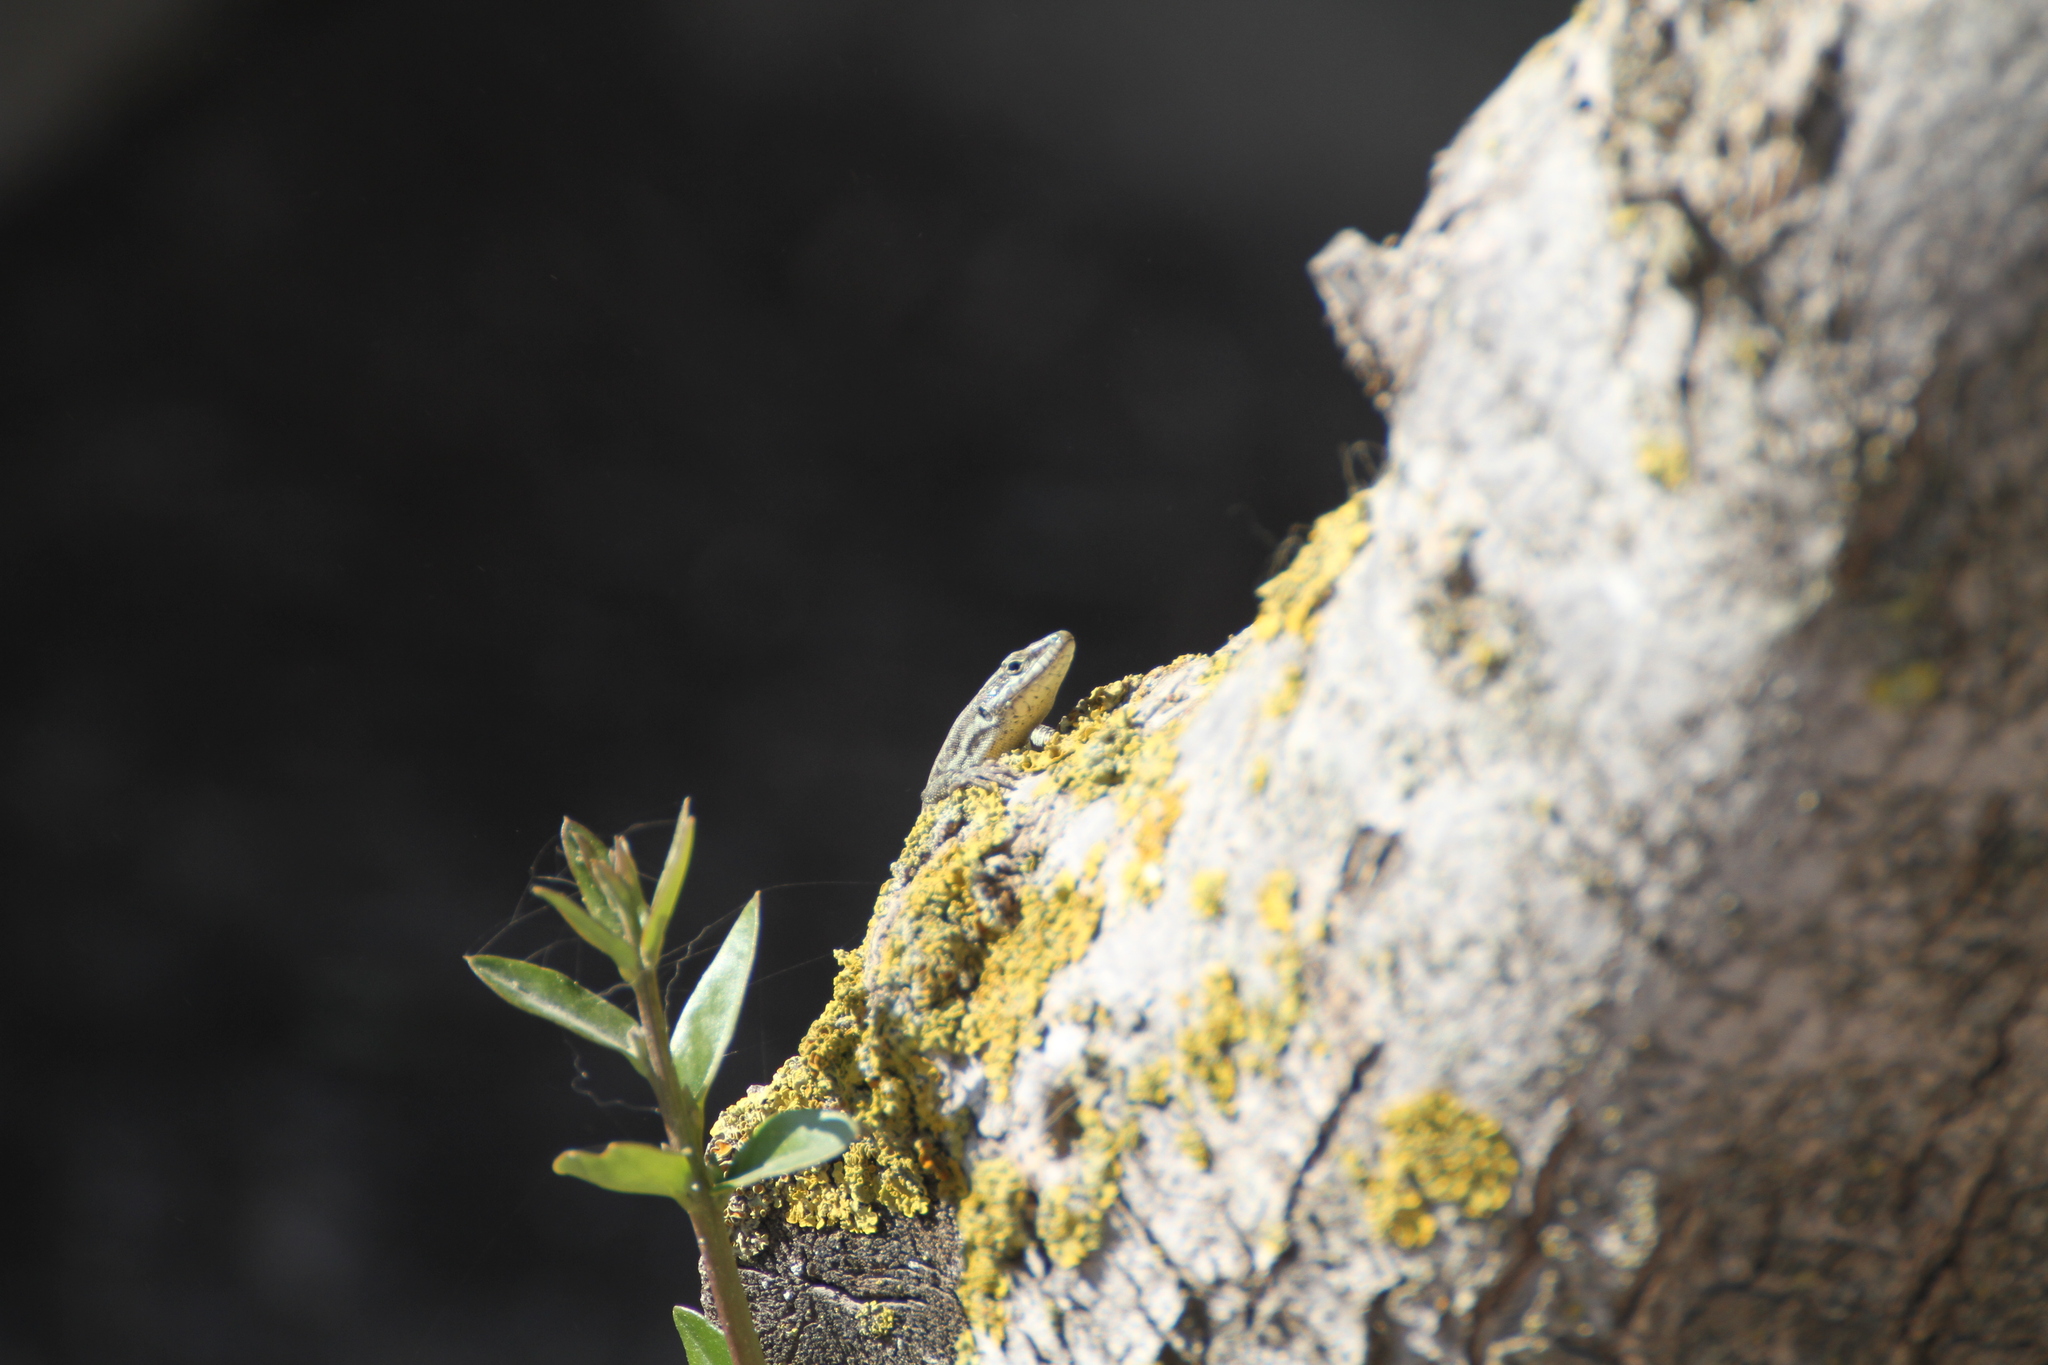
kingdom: Animalia
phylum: Chordata
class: Squamata
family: Lacertidae
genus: Podarcis
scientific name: Podarcis vaucheri
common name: Vaucher's wall lizard
